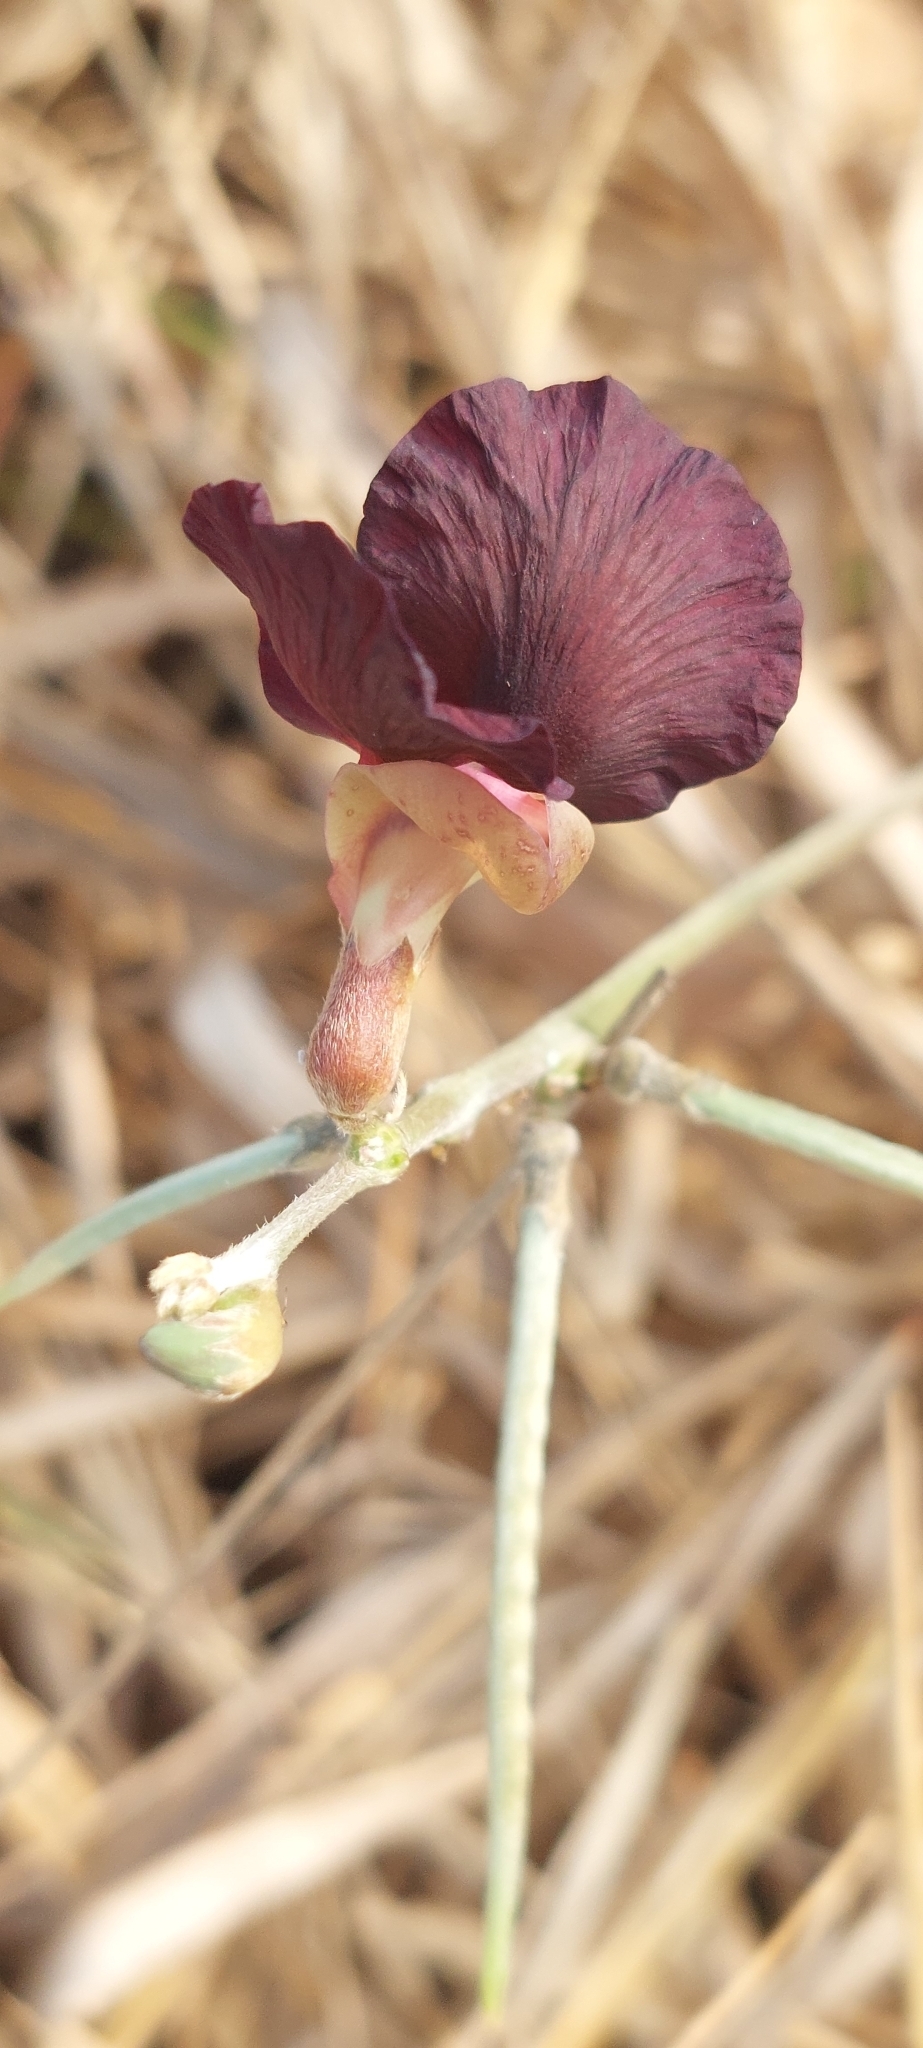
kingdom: Plantae
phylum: Tracheophyta
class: Magnoliopsida
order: Fabales
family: Fabaceae
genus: Macroptilium
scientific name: Macroptilium atropurpureum
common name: Purple bushbean
